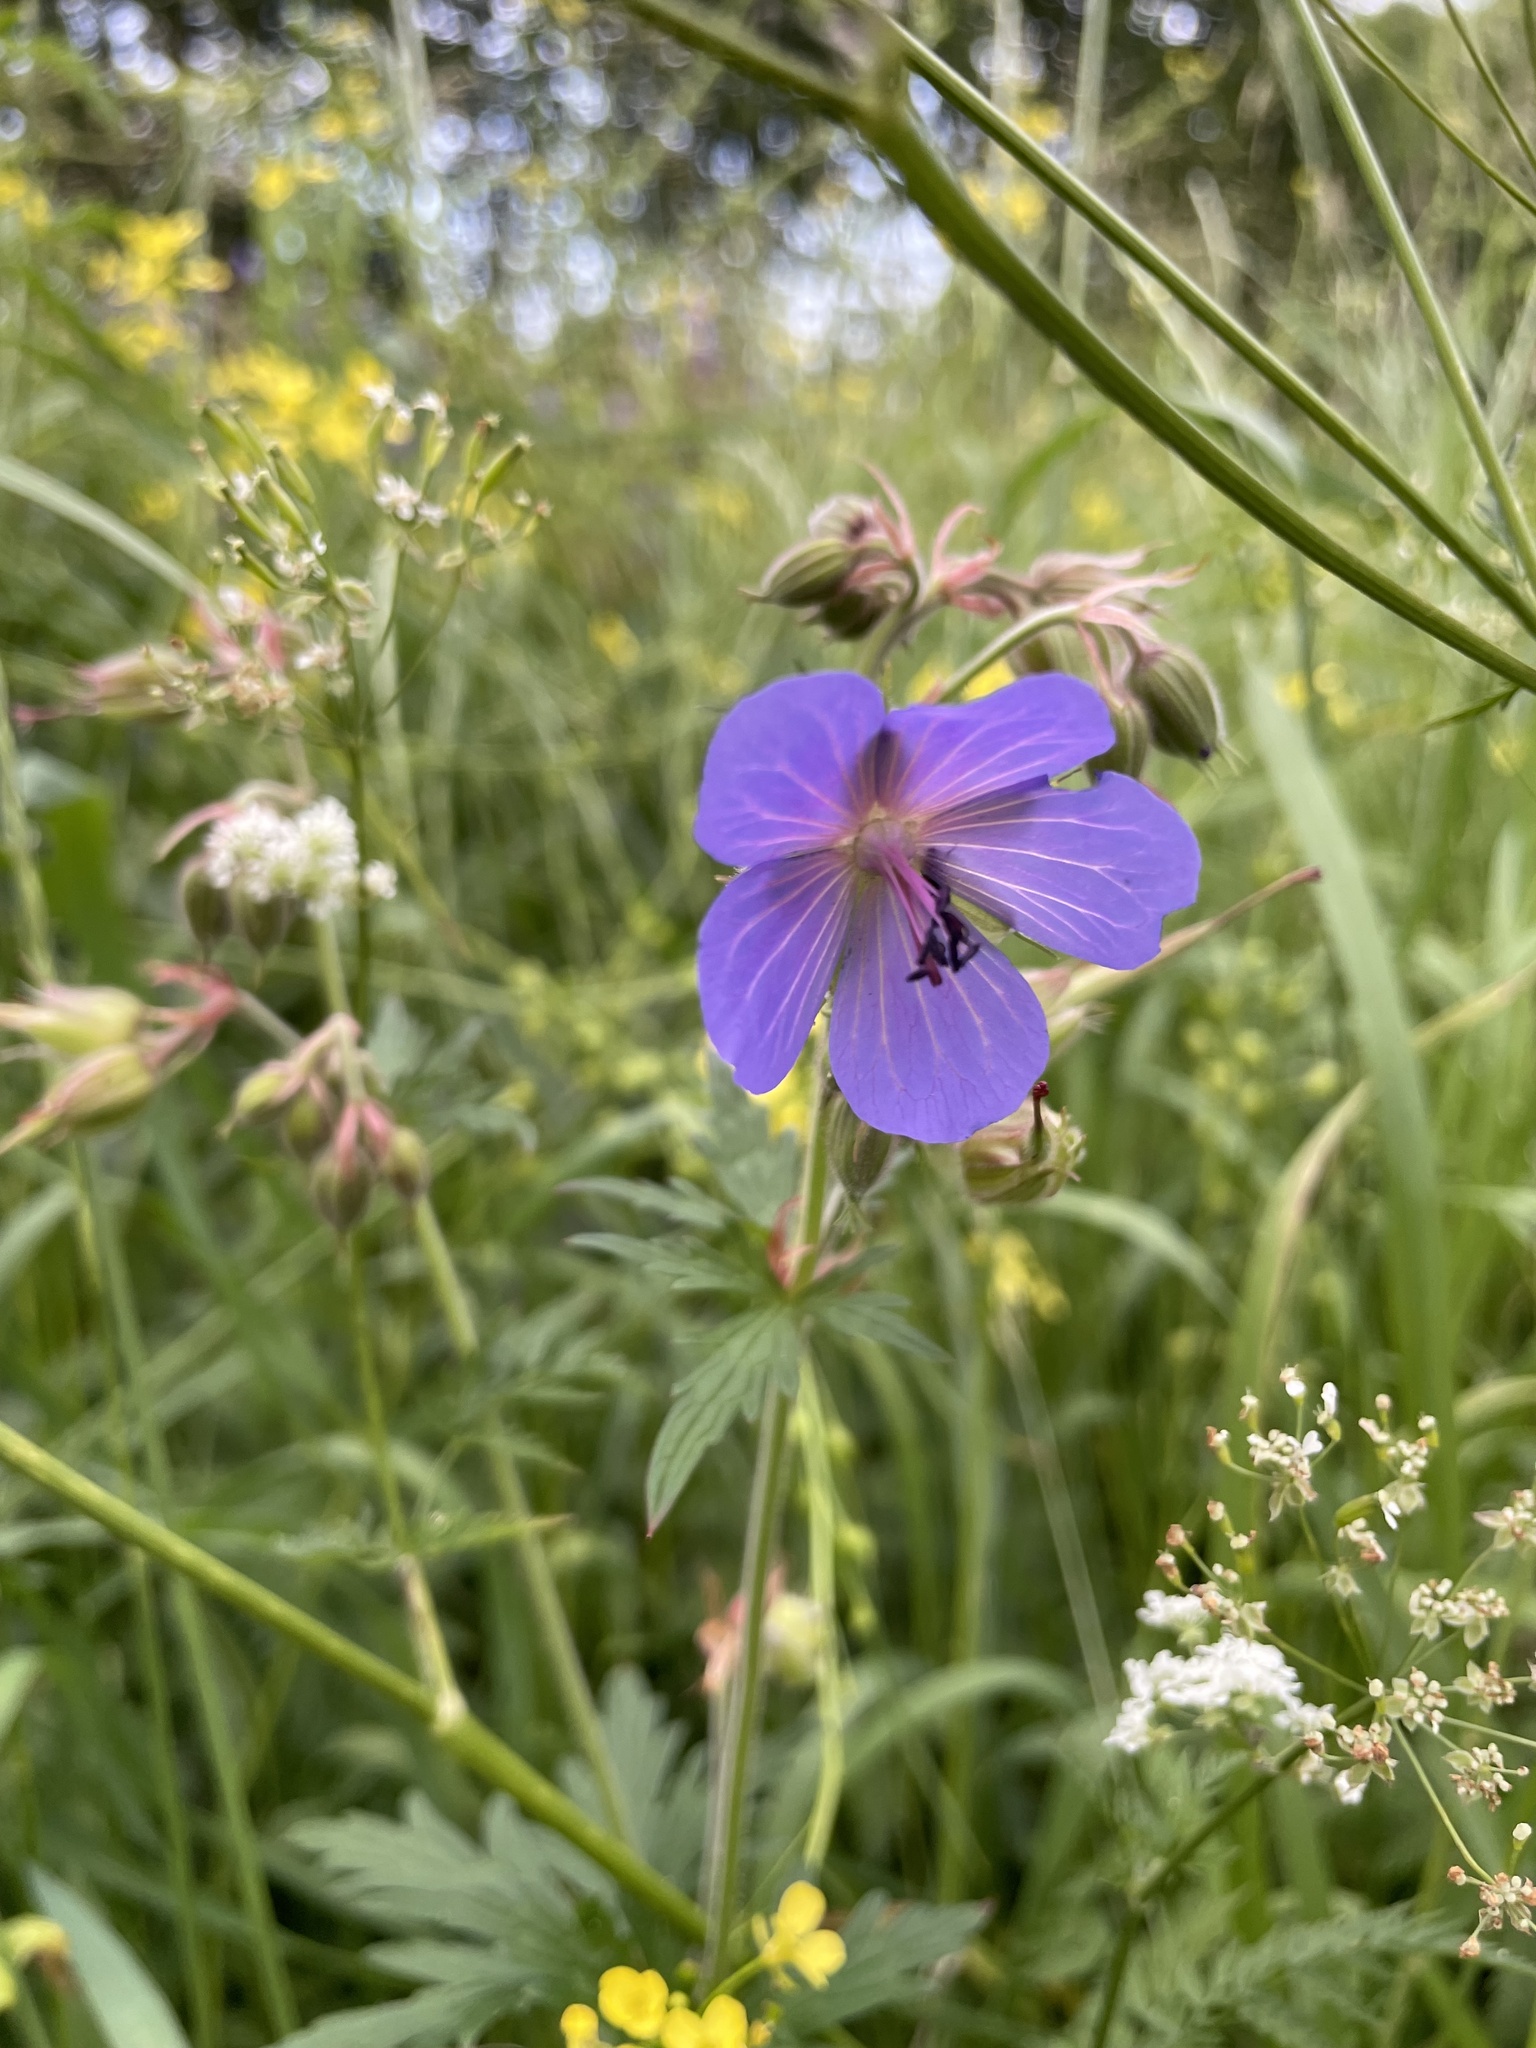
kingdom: Plantae
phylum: Tracheophyta
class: Magnoliopsida
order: Geraniales
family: Geraniaceae
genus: Geranium
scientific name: Geranium pratense
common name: Meadow crane's-bill
